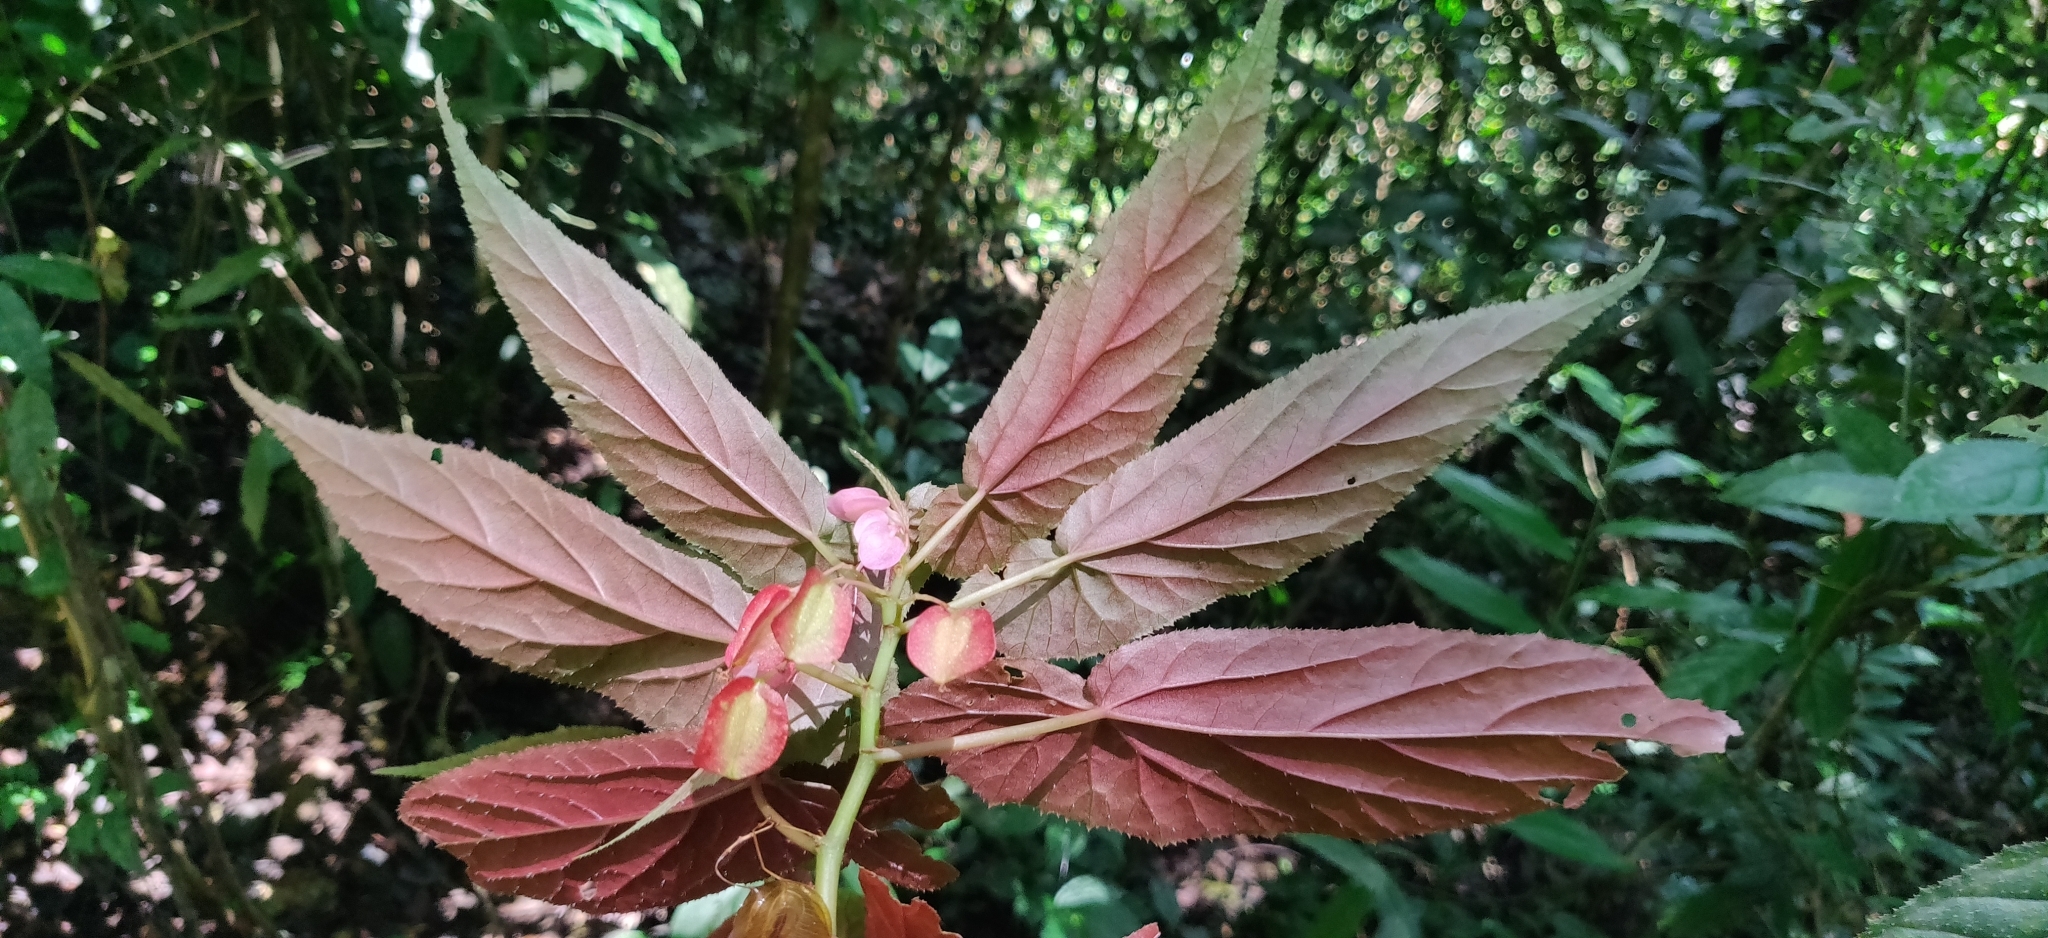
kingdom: Plantae
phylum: Tracheophyta
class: Magnoliopsida
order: Cucurbitales
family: Begoniaceae
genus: Begonia
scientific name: Begonia malabarica
